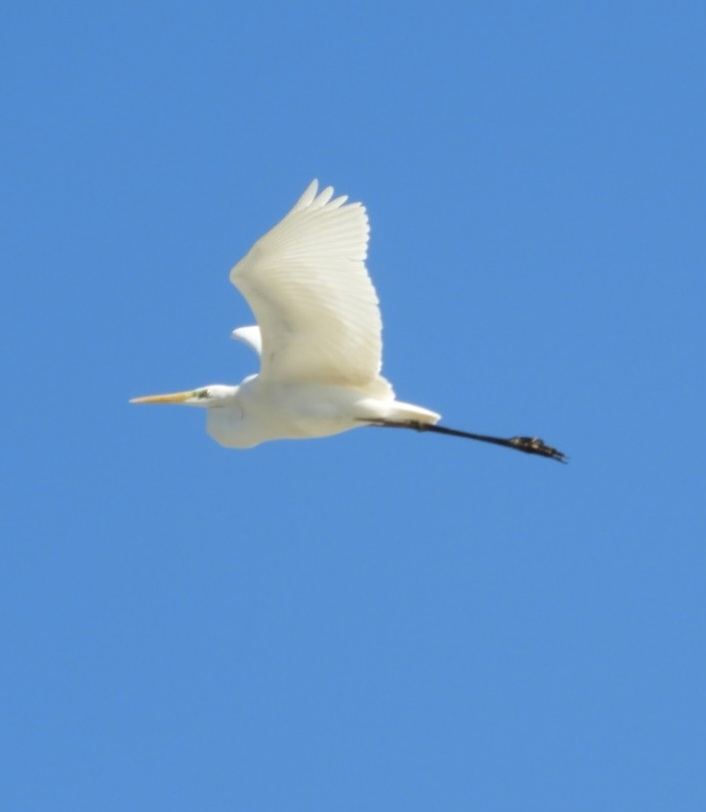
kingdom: Animalia
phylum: Chordata
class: Aves
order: Pelecaniformes
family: Ardeidae
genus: Ardea
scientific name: Ardea alba
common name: Great egret
